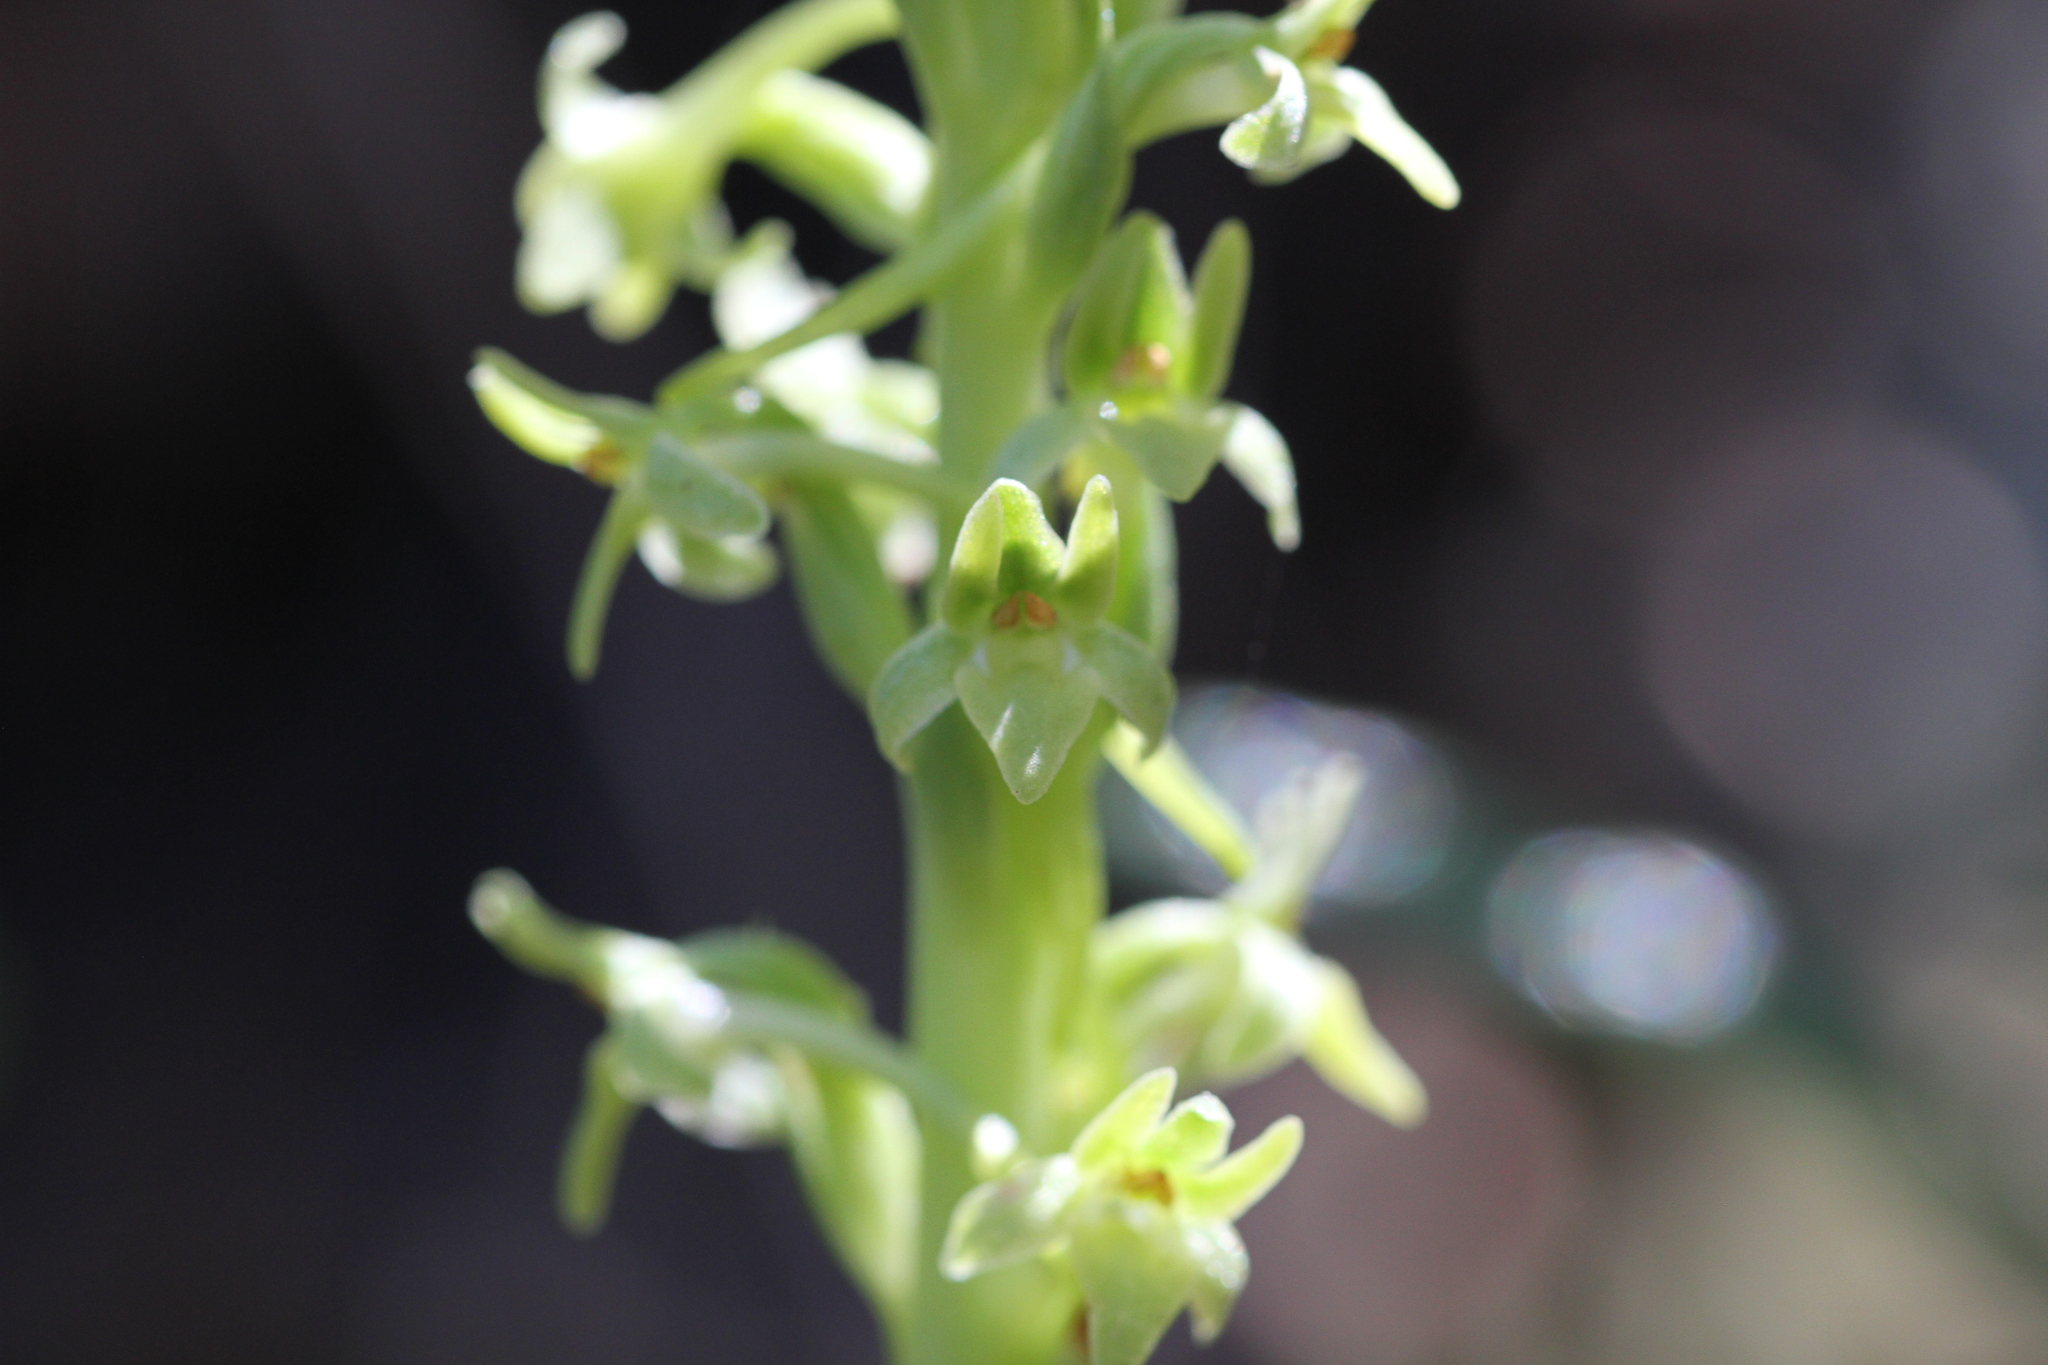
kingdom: Plantae
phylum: Tracheophyta
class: Liliopsida
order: Asparagales
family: Orchidaceae
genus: Platanthera
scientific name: Platanthera michaelii
